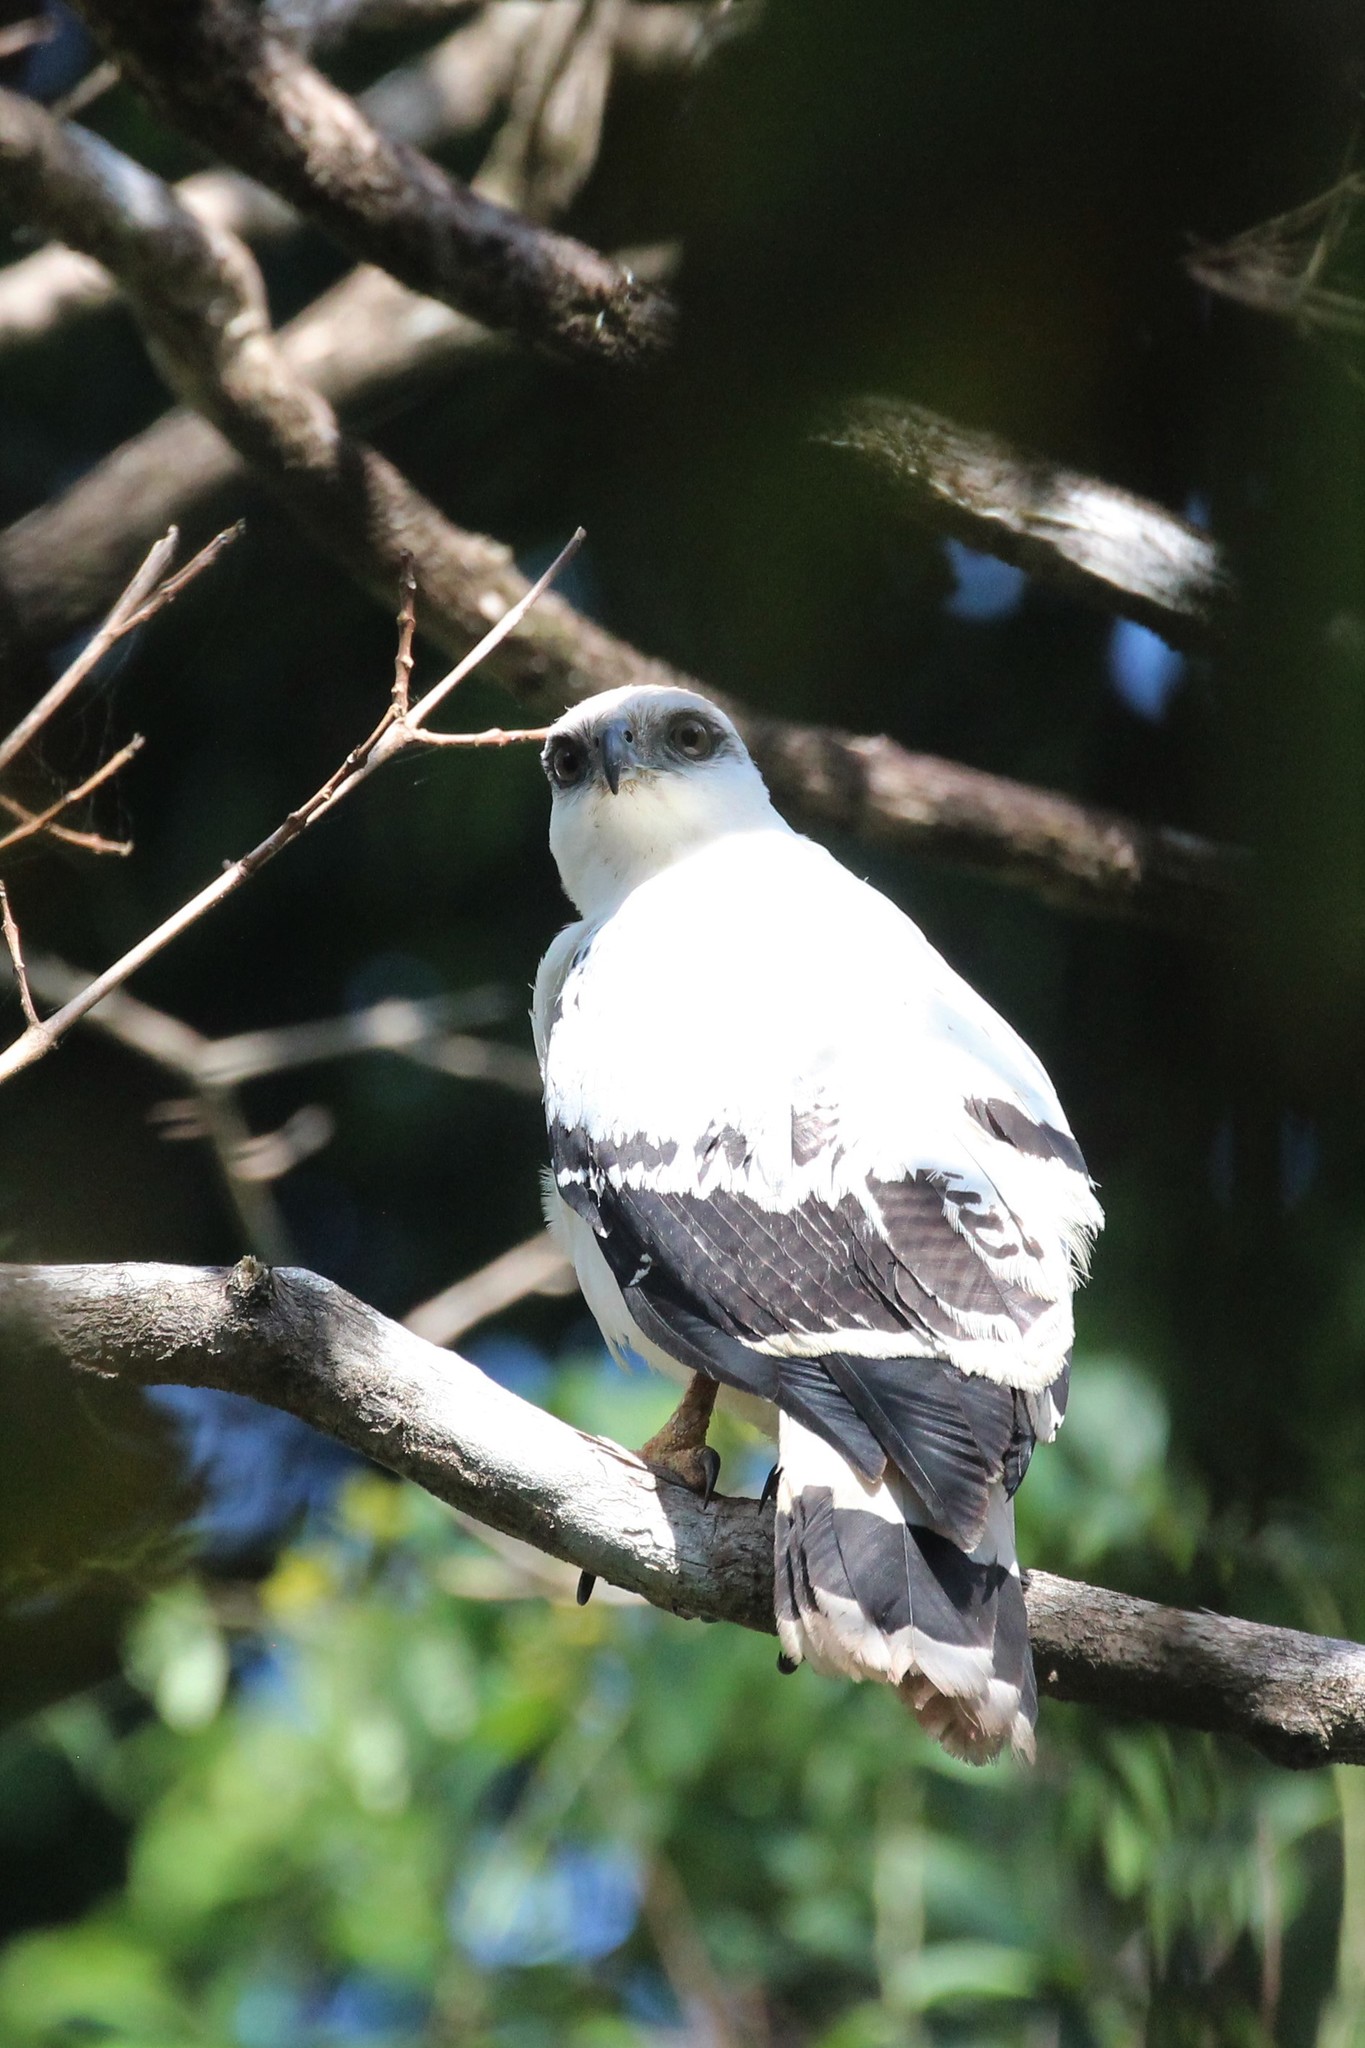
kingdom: Animalia
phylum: Chordata
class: Aves
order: Accipitriformes
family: Accipitridae
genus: Leucopternis
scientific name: Leucopternis albicollis
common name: White hawk
